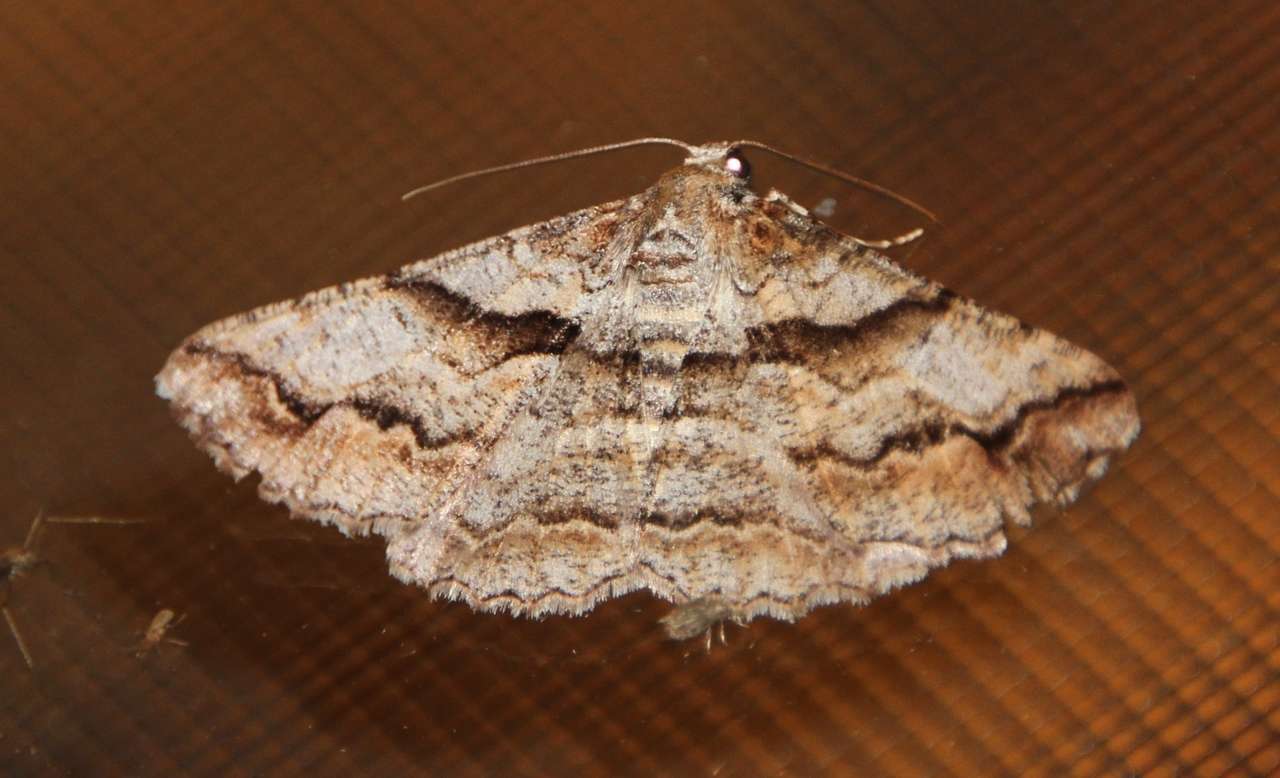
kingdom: Animalia
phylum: Arthropoda
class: Insecta
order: Lepidoptera
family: Geometridae
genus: Gastrinodes
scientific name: Gastrinodes bitaeniaria
